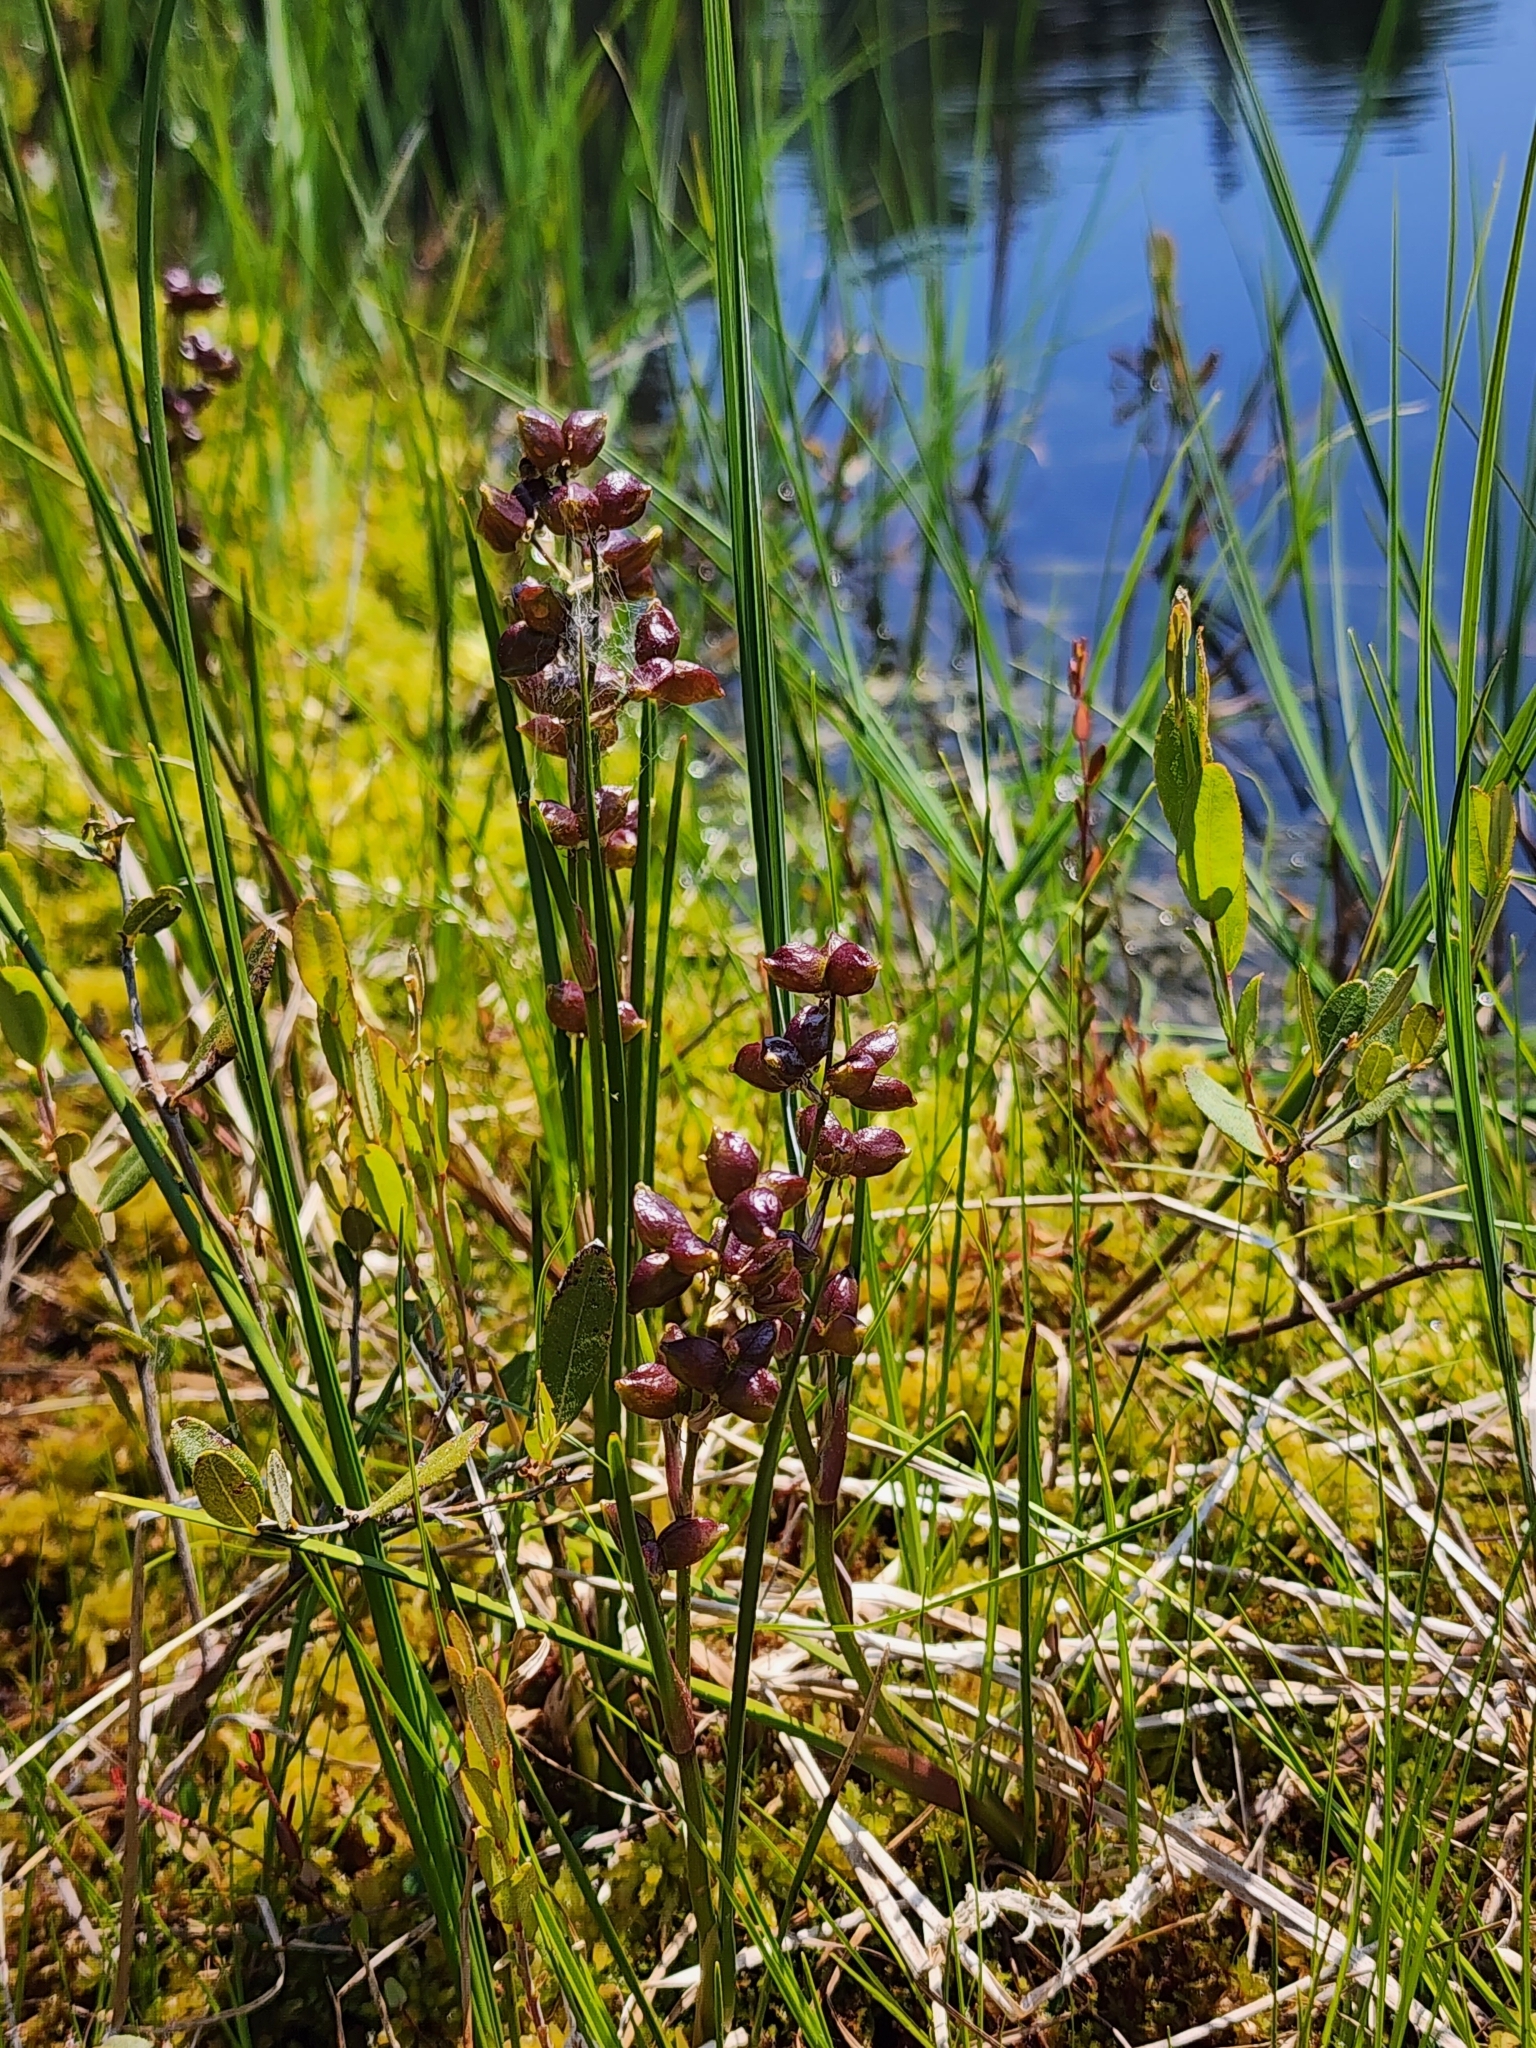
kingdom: Plantae
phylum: Tracheophyta
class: Liliopsida
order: Alismatales
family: Scheuchzeriaceae
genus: Scheuchzeria
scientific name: Scheuchzeria palustris
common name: Rannoch-rush
